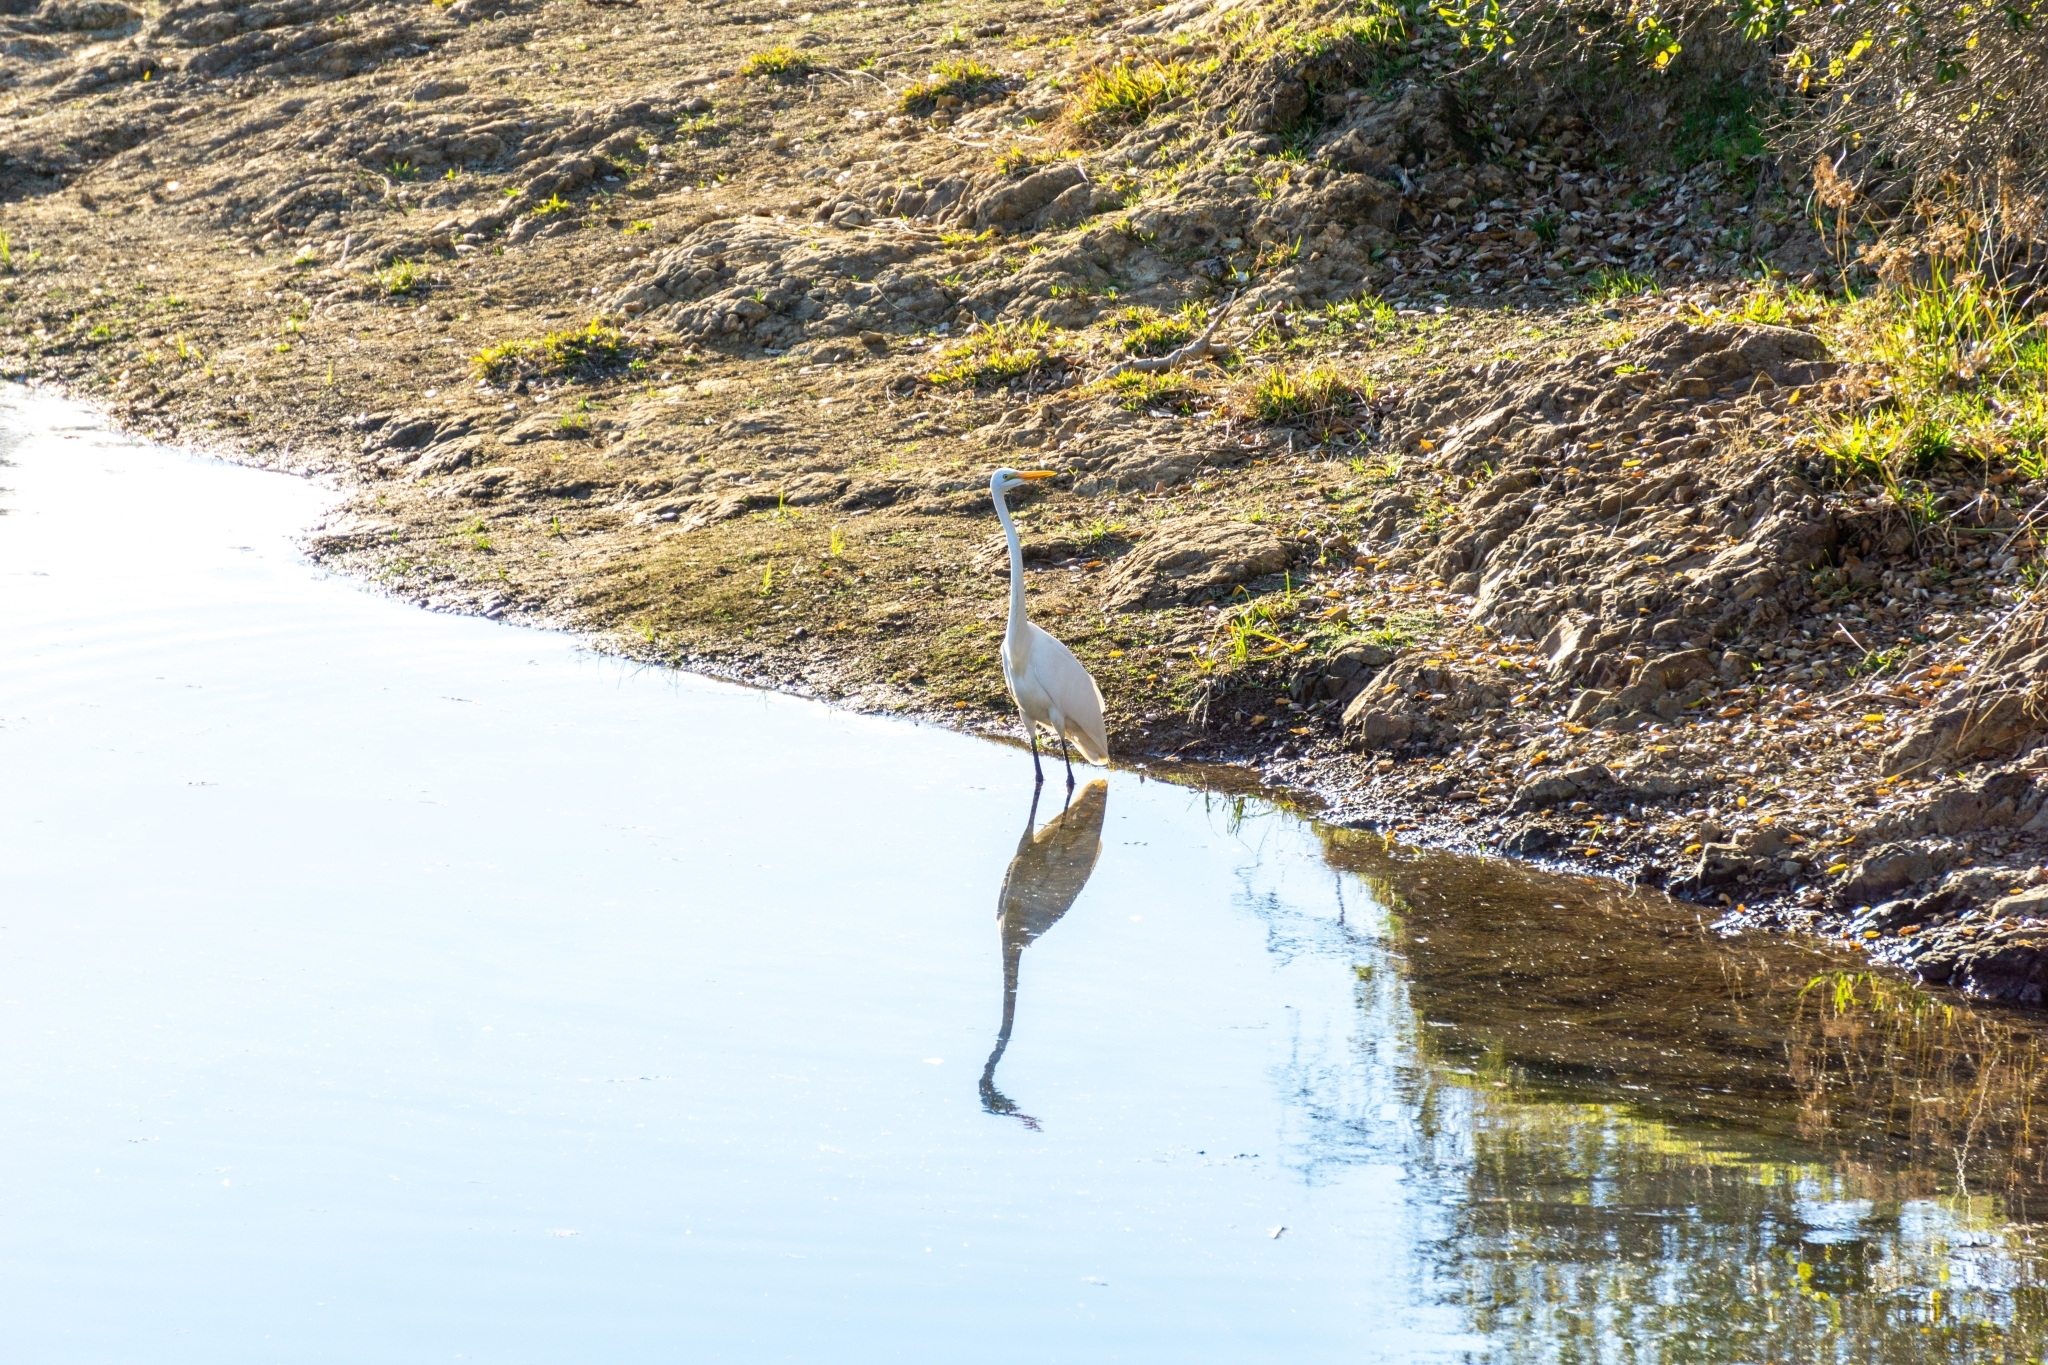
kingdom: Animalia
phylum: Chordata
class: Aves
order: Pelecaniformes
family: Ardeidae
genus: Ardea
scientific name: Ardea alba
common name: Great egret
